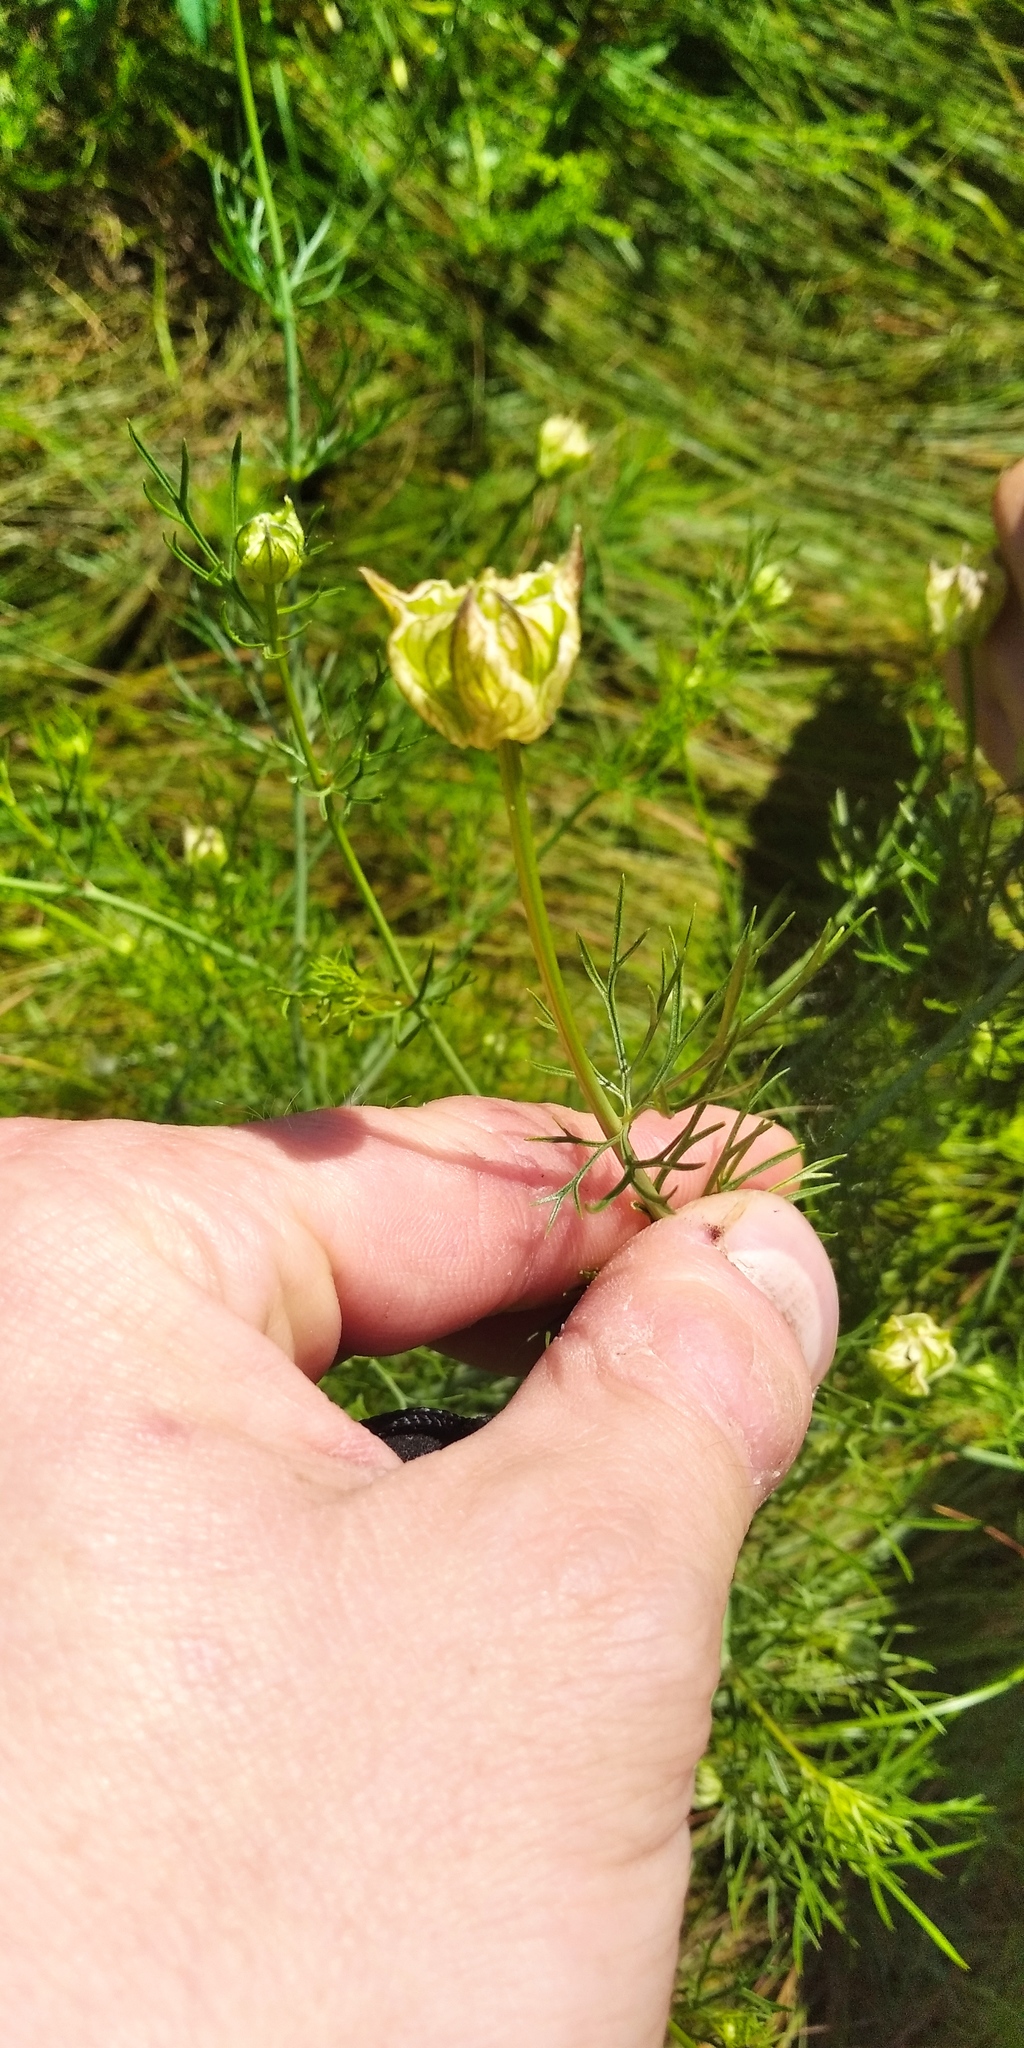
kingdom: Plantae
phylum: Tracheophyta
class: Magnoliopsida
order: Ranunculales
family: Ranunculaceae
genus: Nigella
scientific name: Nigella arvensis
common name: Wild fennel-flower
